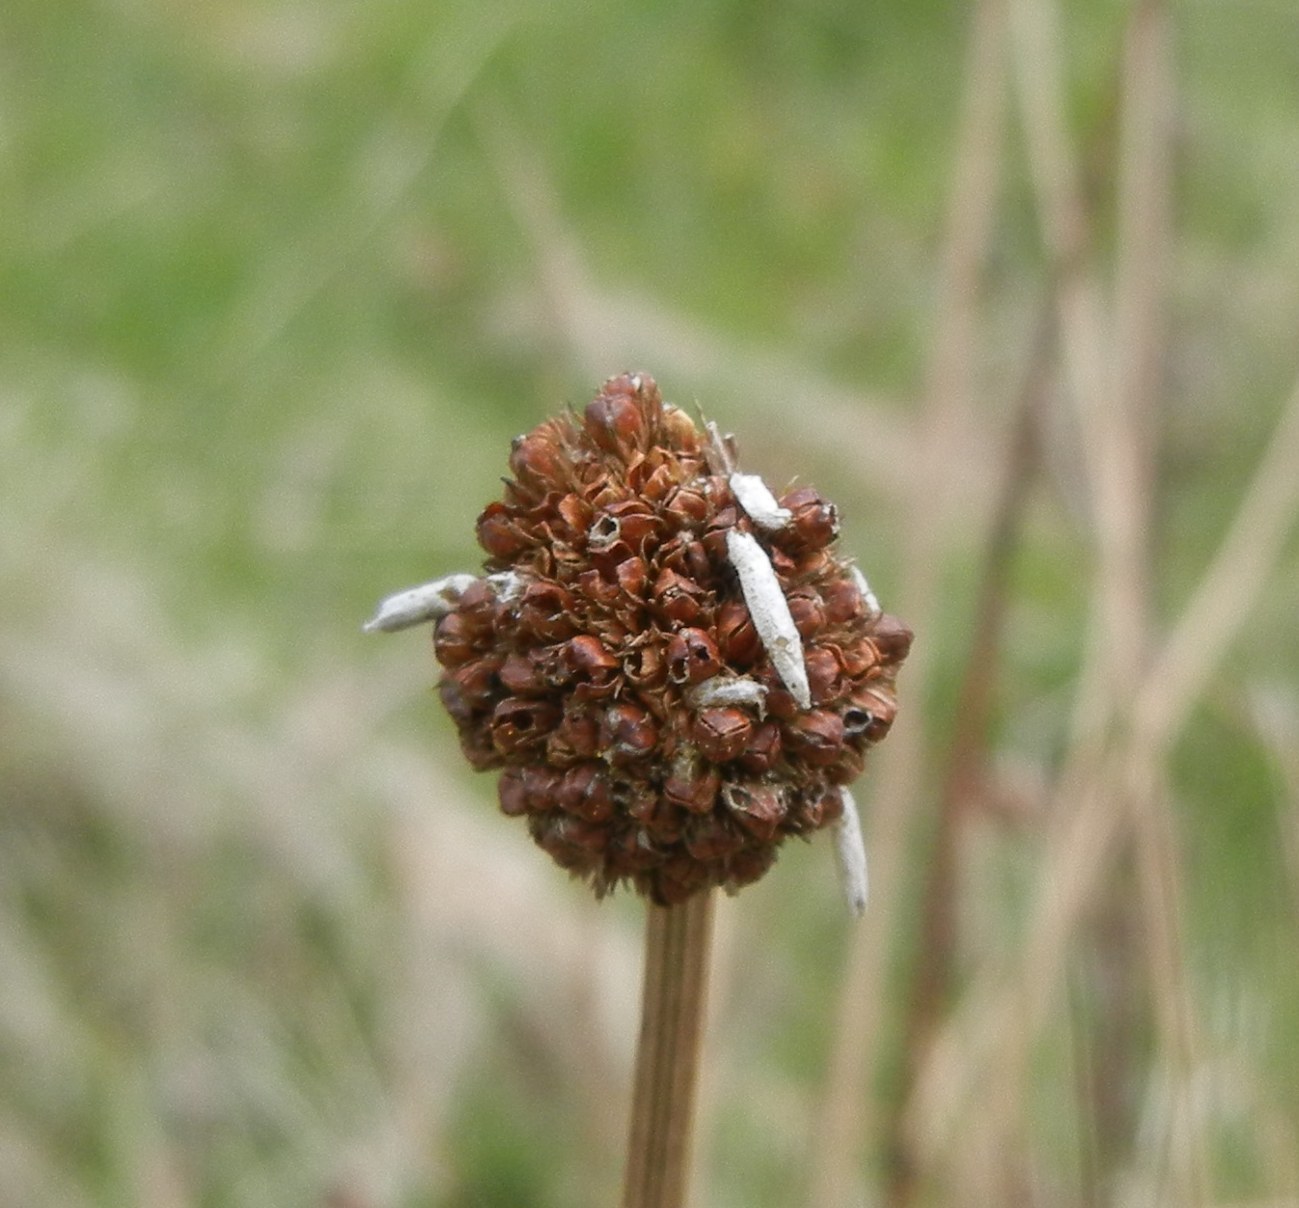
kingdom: Plantae
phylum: Tracheophyta
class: Liliopsida
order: Poales
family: Juncaceae
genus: Juncus
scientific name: Juncus conglomeratus
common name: Compact rush
